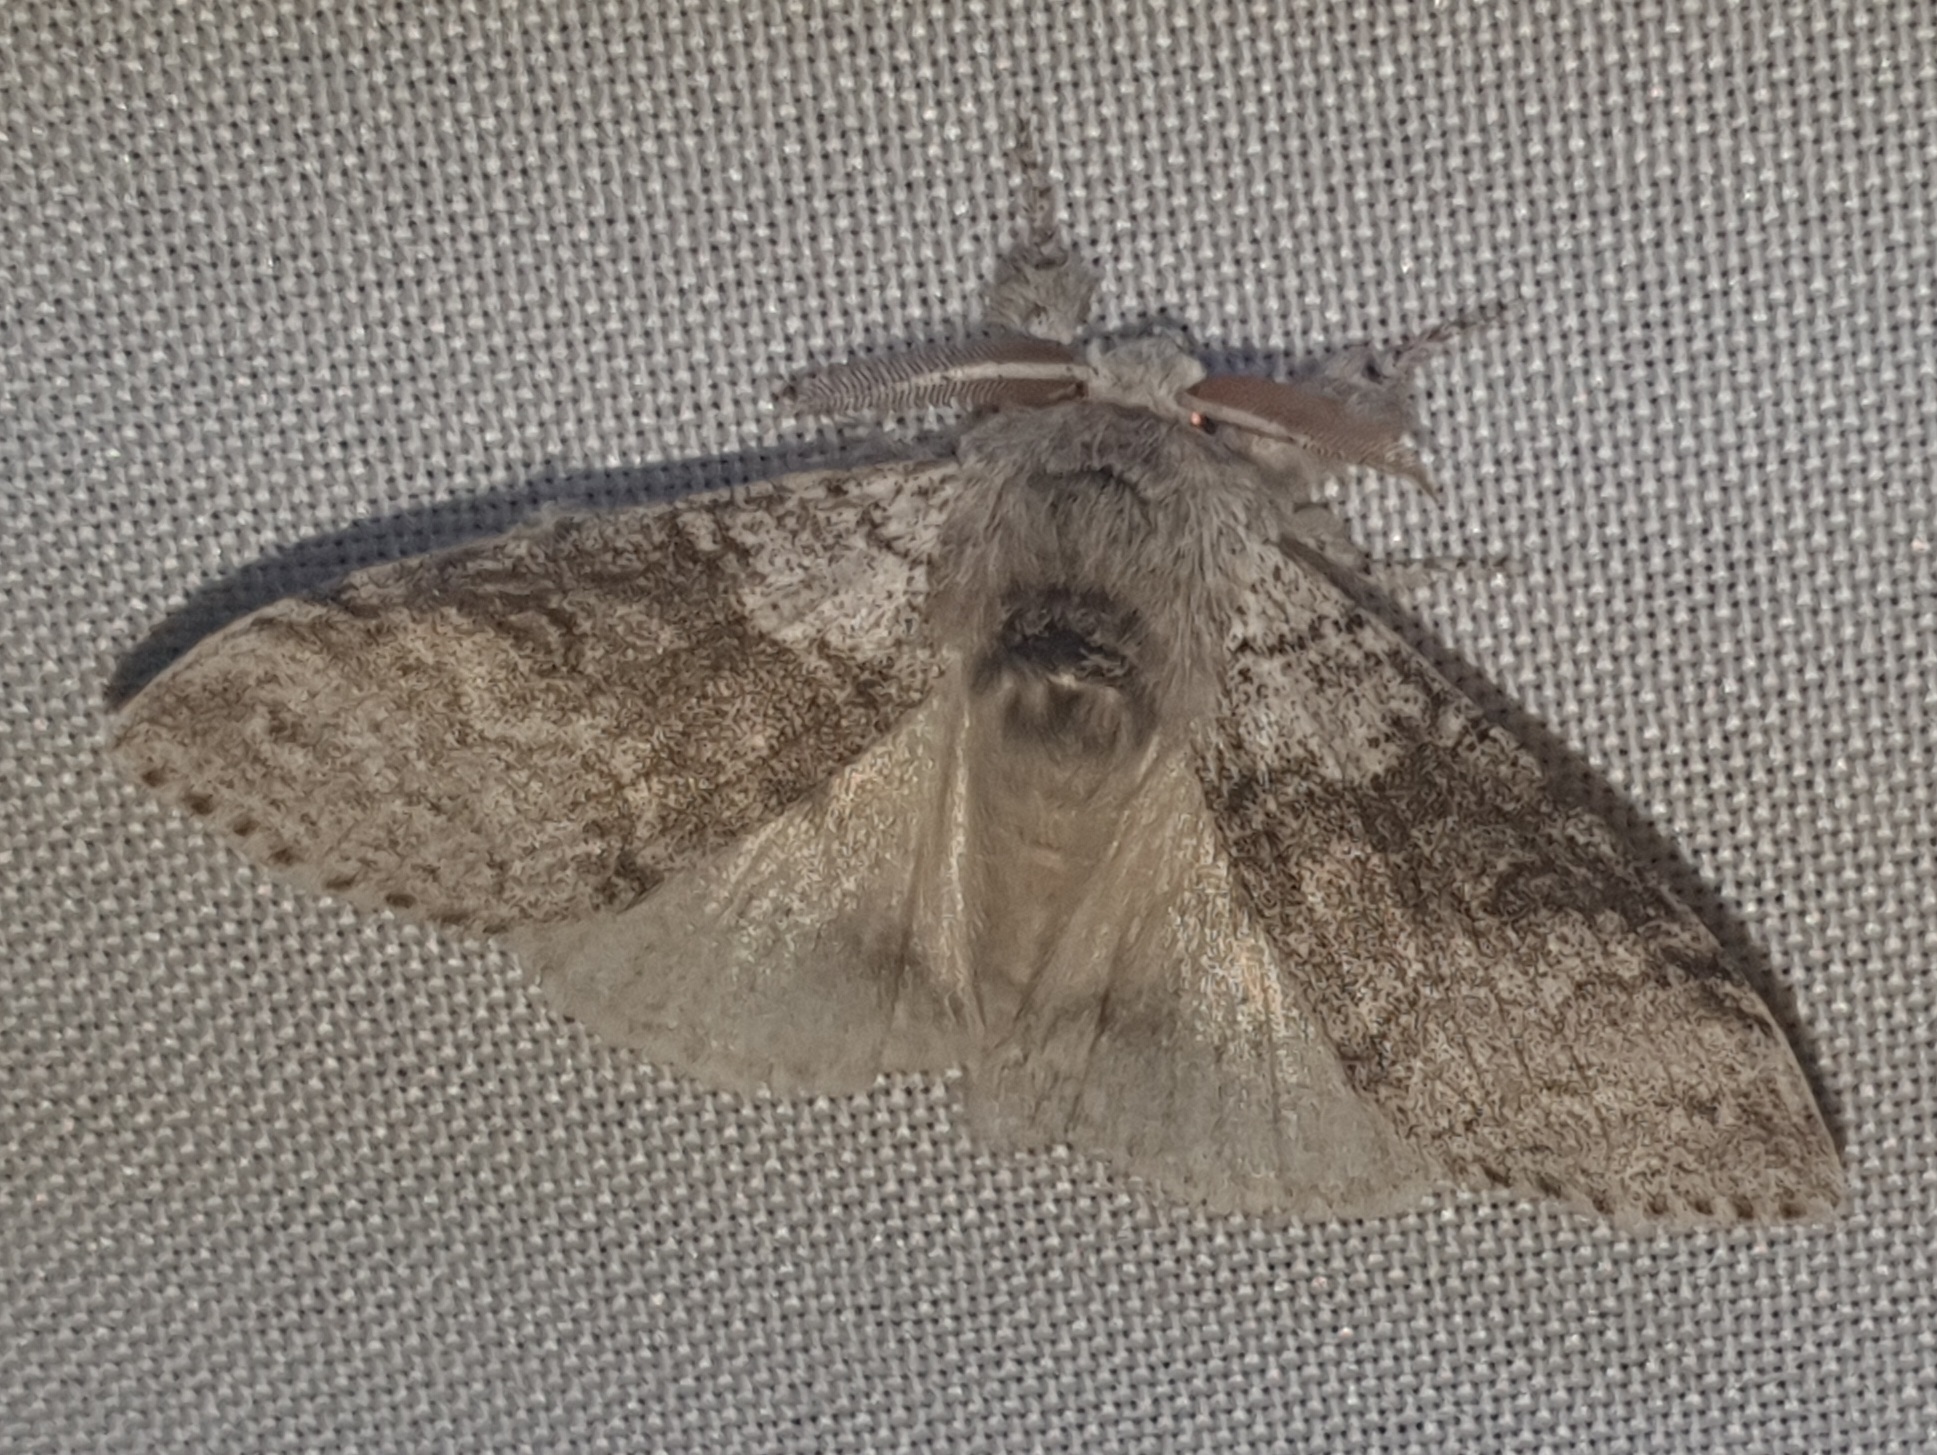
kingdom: Animalia
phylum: Arthropoda
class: Insecta
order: Lepidoptera
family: Erebidae
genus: Calliteara
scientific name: Calliteara pudibunda
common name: Pale tussock
